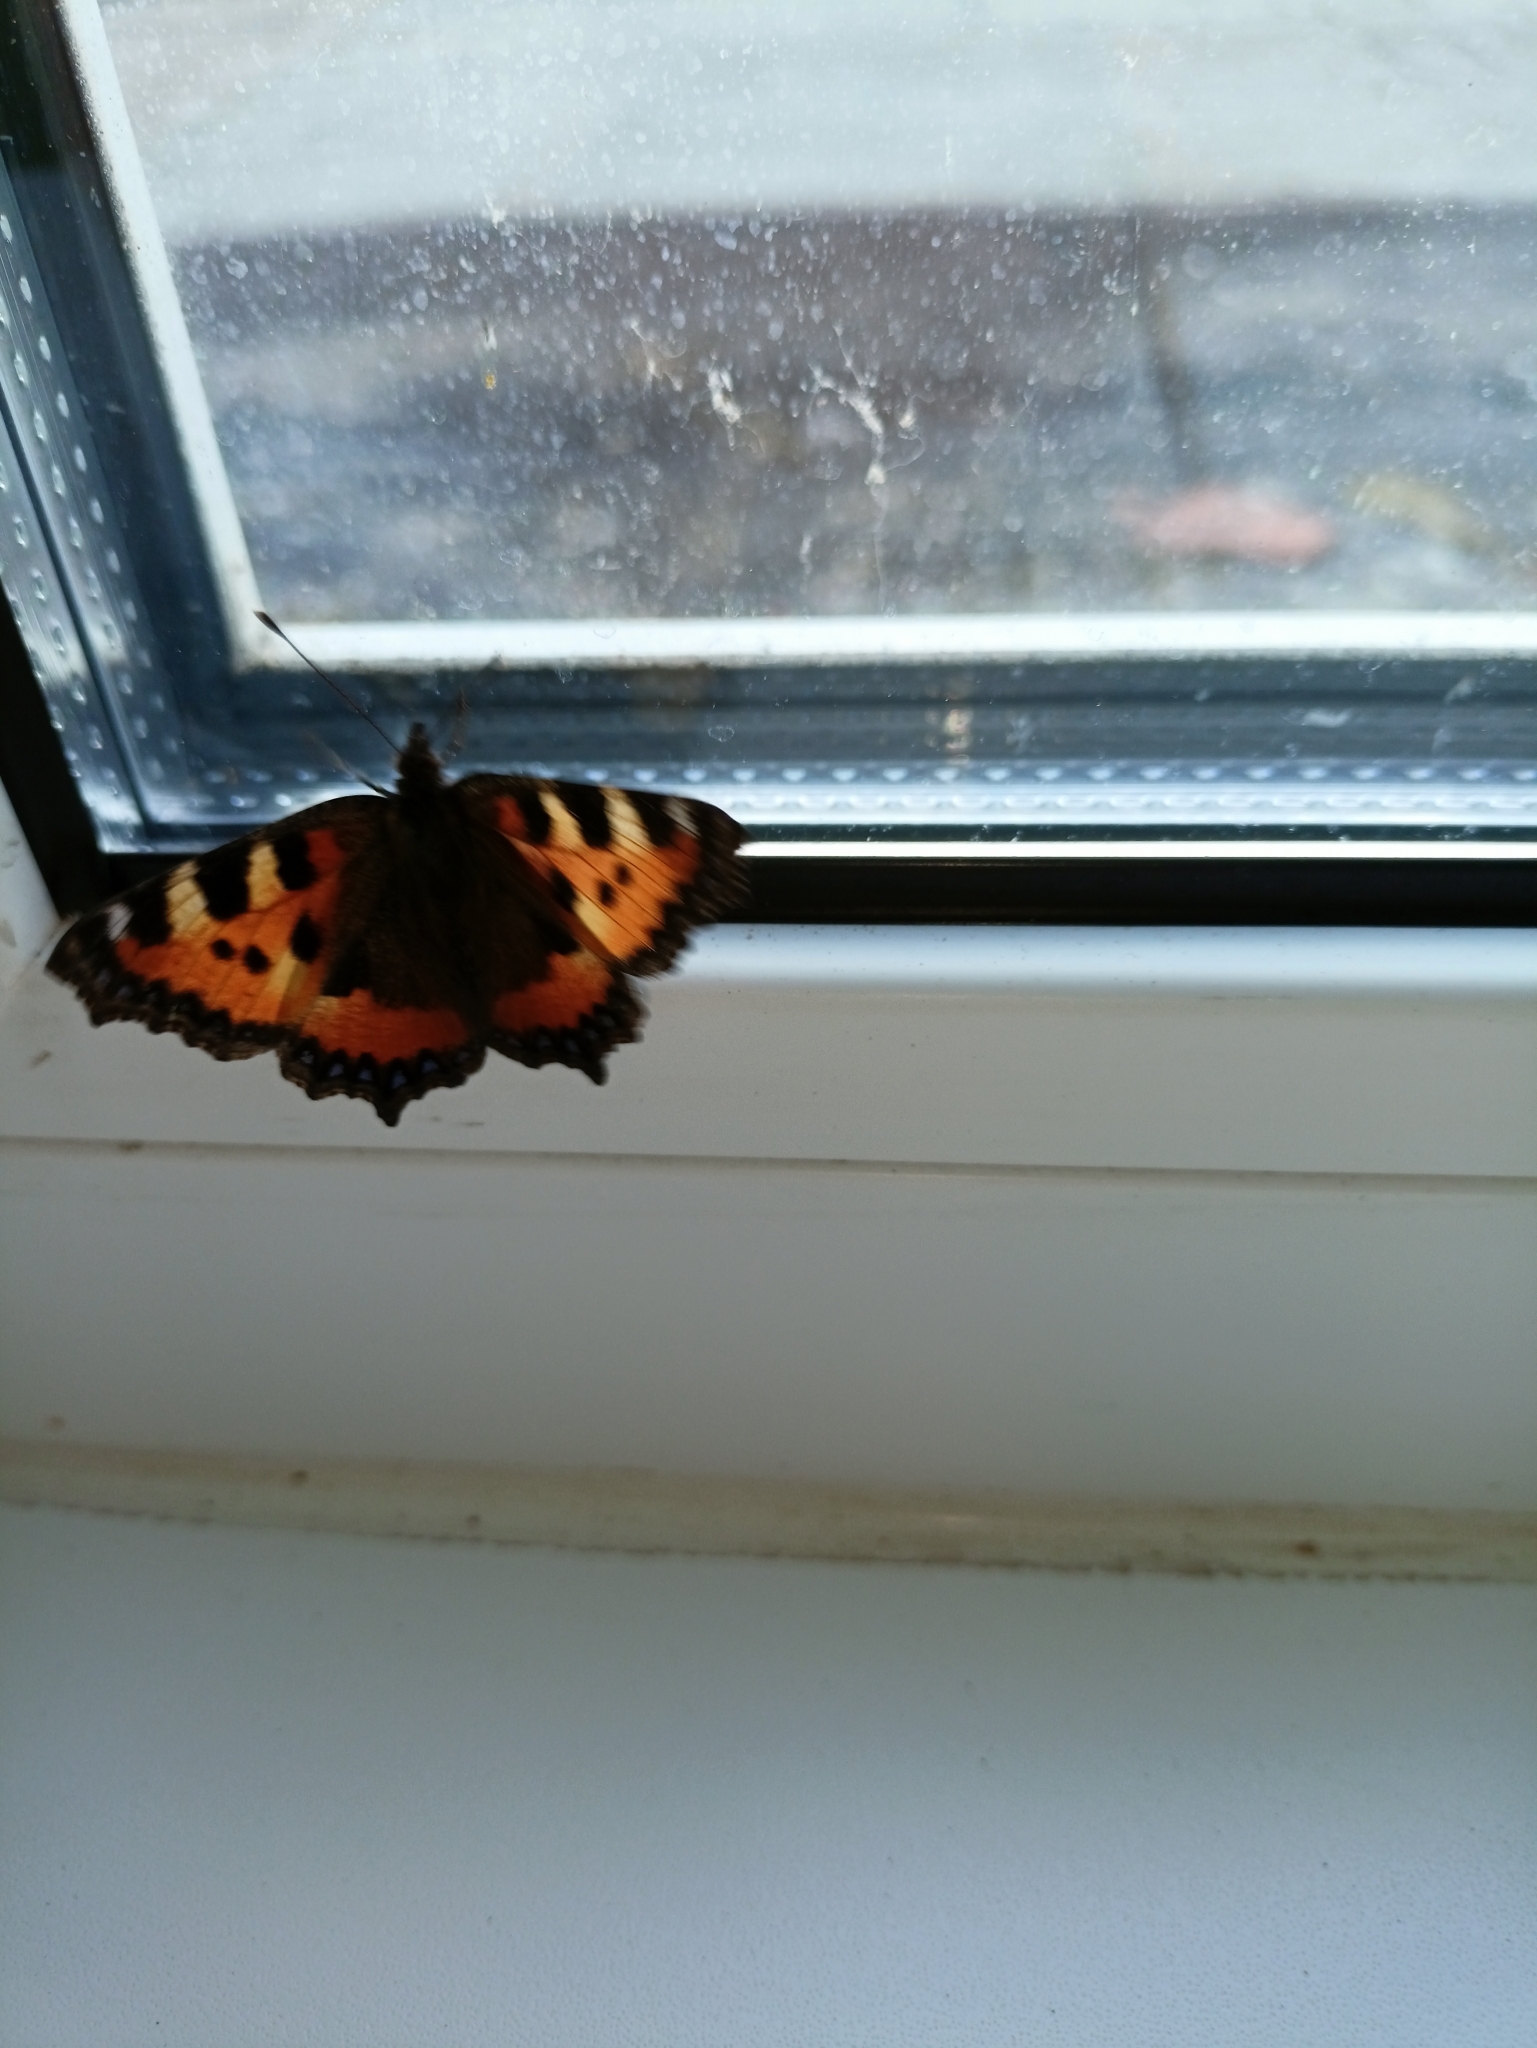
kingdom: Animalia
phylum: Arthropoda
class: Insecta
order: Lepidoptera
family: Nymphalidae
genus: Aglais
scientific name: Aglais urticae
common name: Small tortoiseshell
